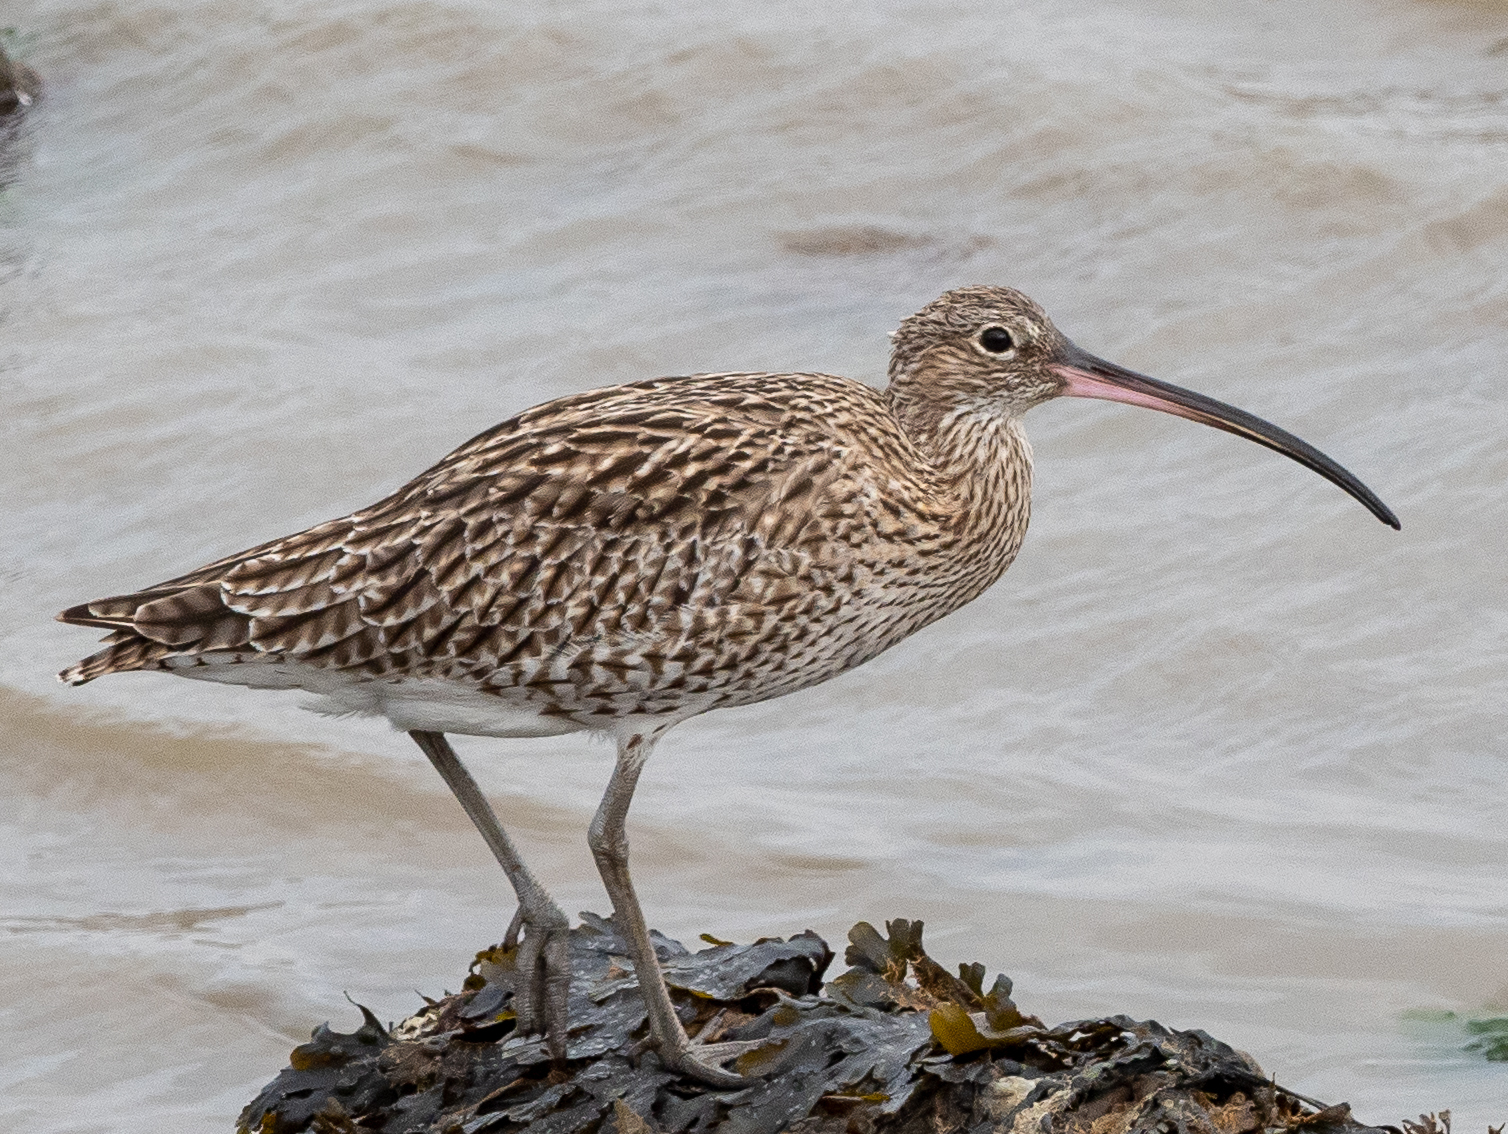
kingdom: Animalia
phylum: Chordata
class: Aves
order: Charadriiformes
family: Scolopacidae
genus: Numenius
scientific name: Numenius arquata
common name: Eurasian curlew
